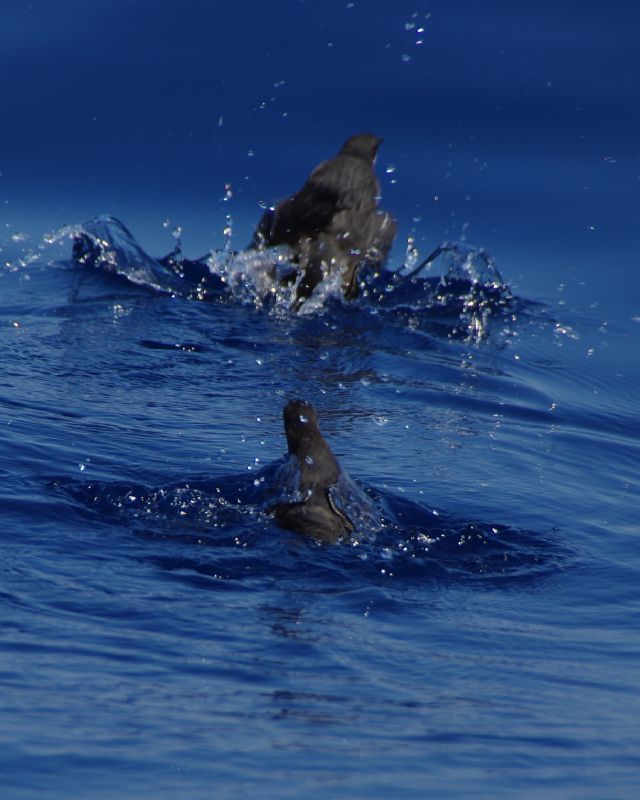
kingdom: Animalia
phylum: Chordata
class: Aves
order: Charadriiformes
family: Alcidae
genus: Synthliboramphus
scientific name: Synthliboramphus craveri
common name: Craveri's murrelet
